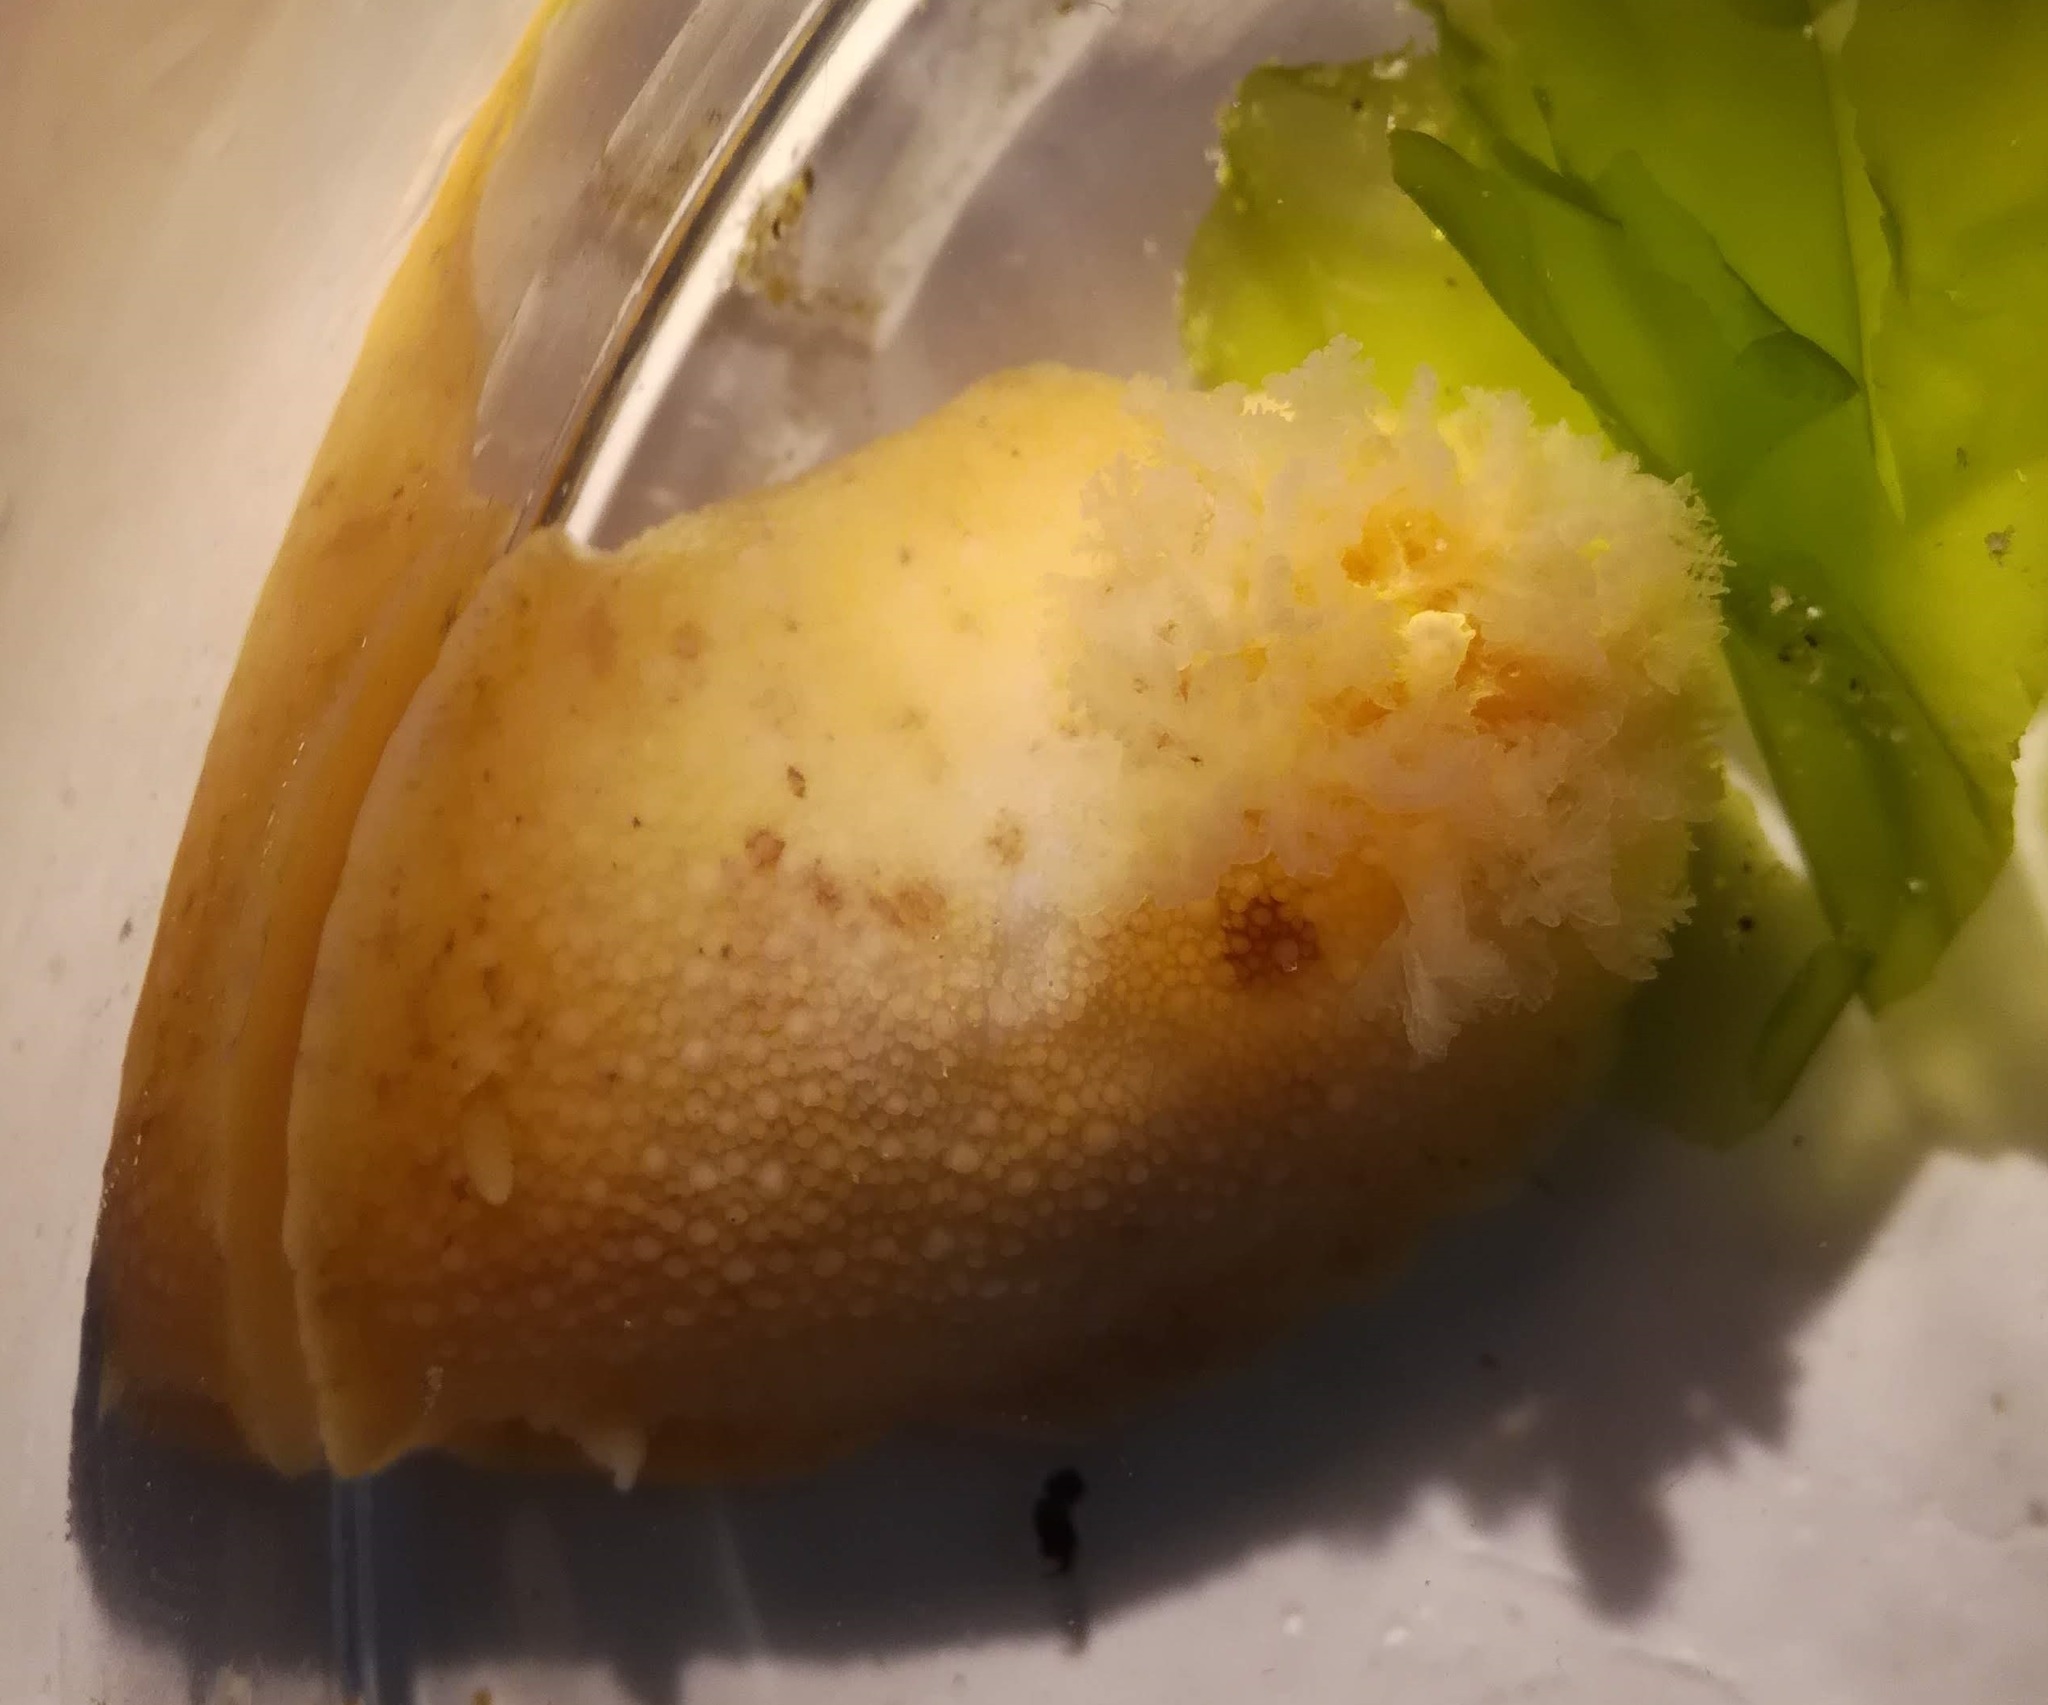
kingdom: Animalia
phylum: Mollusca
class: Gastropoda
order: Nudibranchia
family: Dorididae
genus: Doris
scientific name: Doris pseudoargus
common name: Sea lemon
